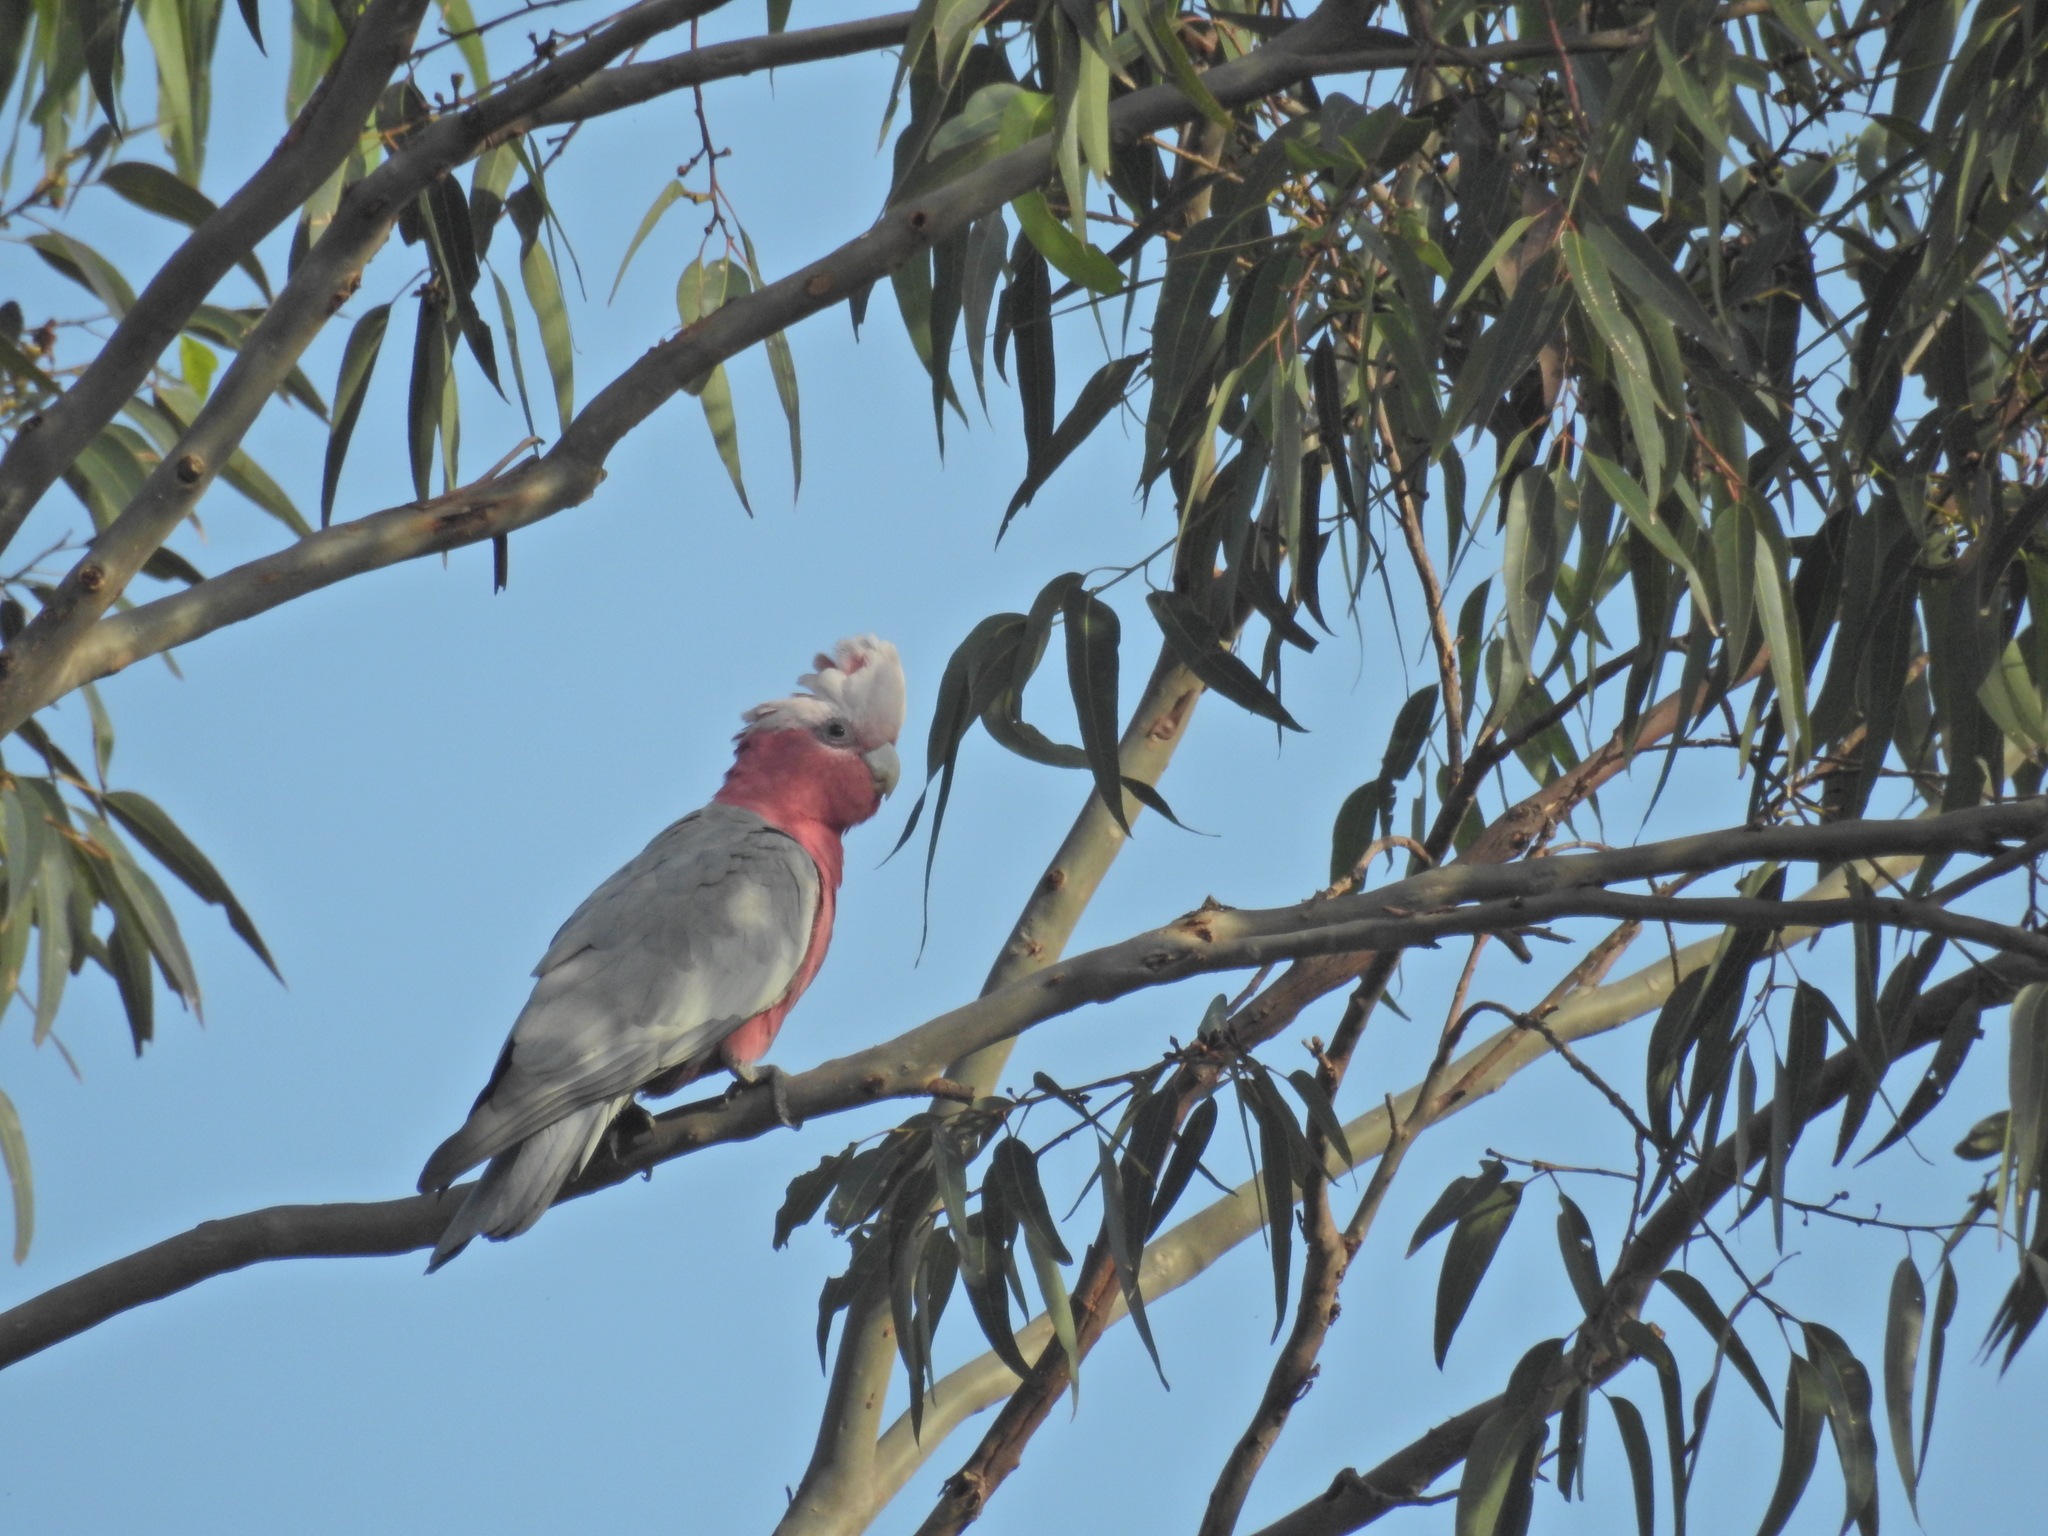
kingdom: Animalia
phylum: Chordata
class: Aves
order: Psittaciformes
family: Psittacidae
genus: Eolophus
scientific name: Eolophus roseicapilla
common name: Galah
